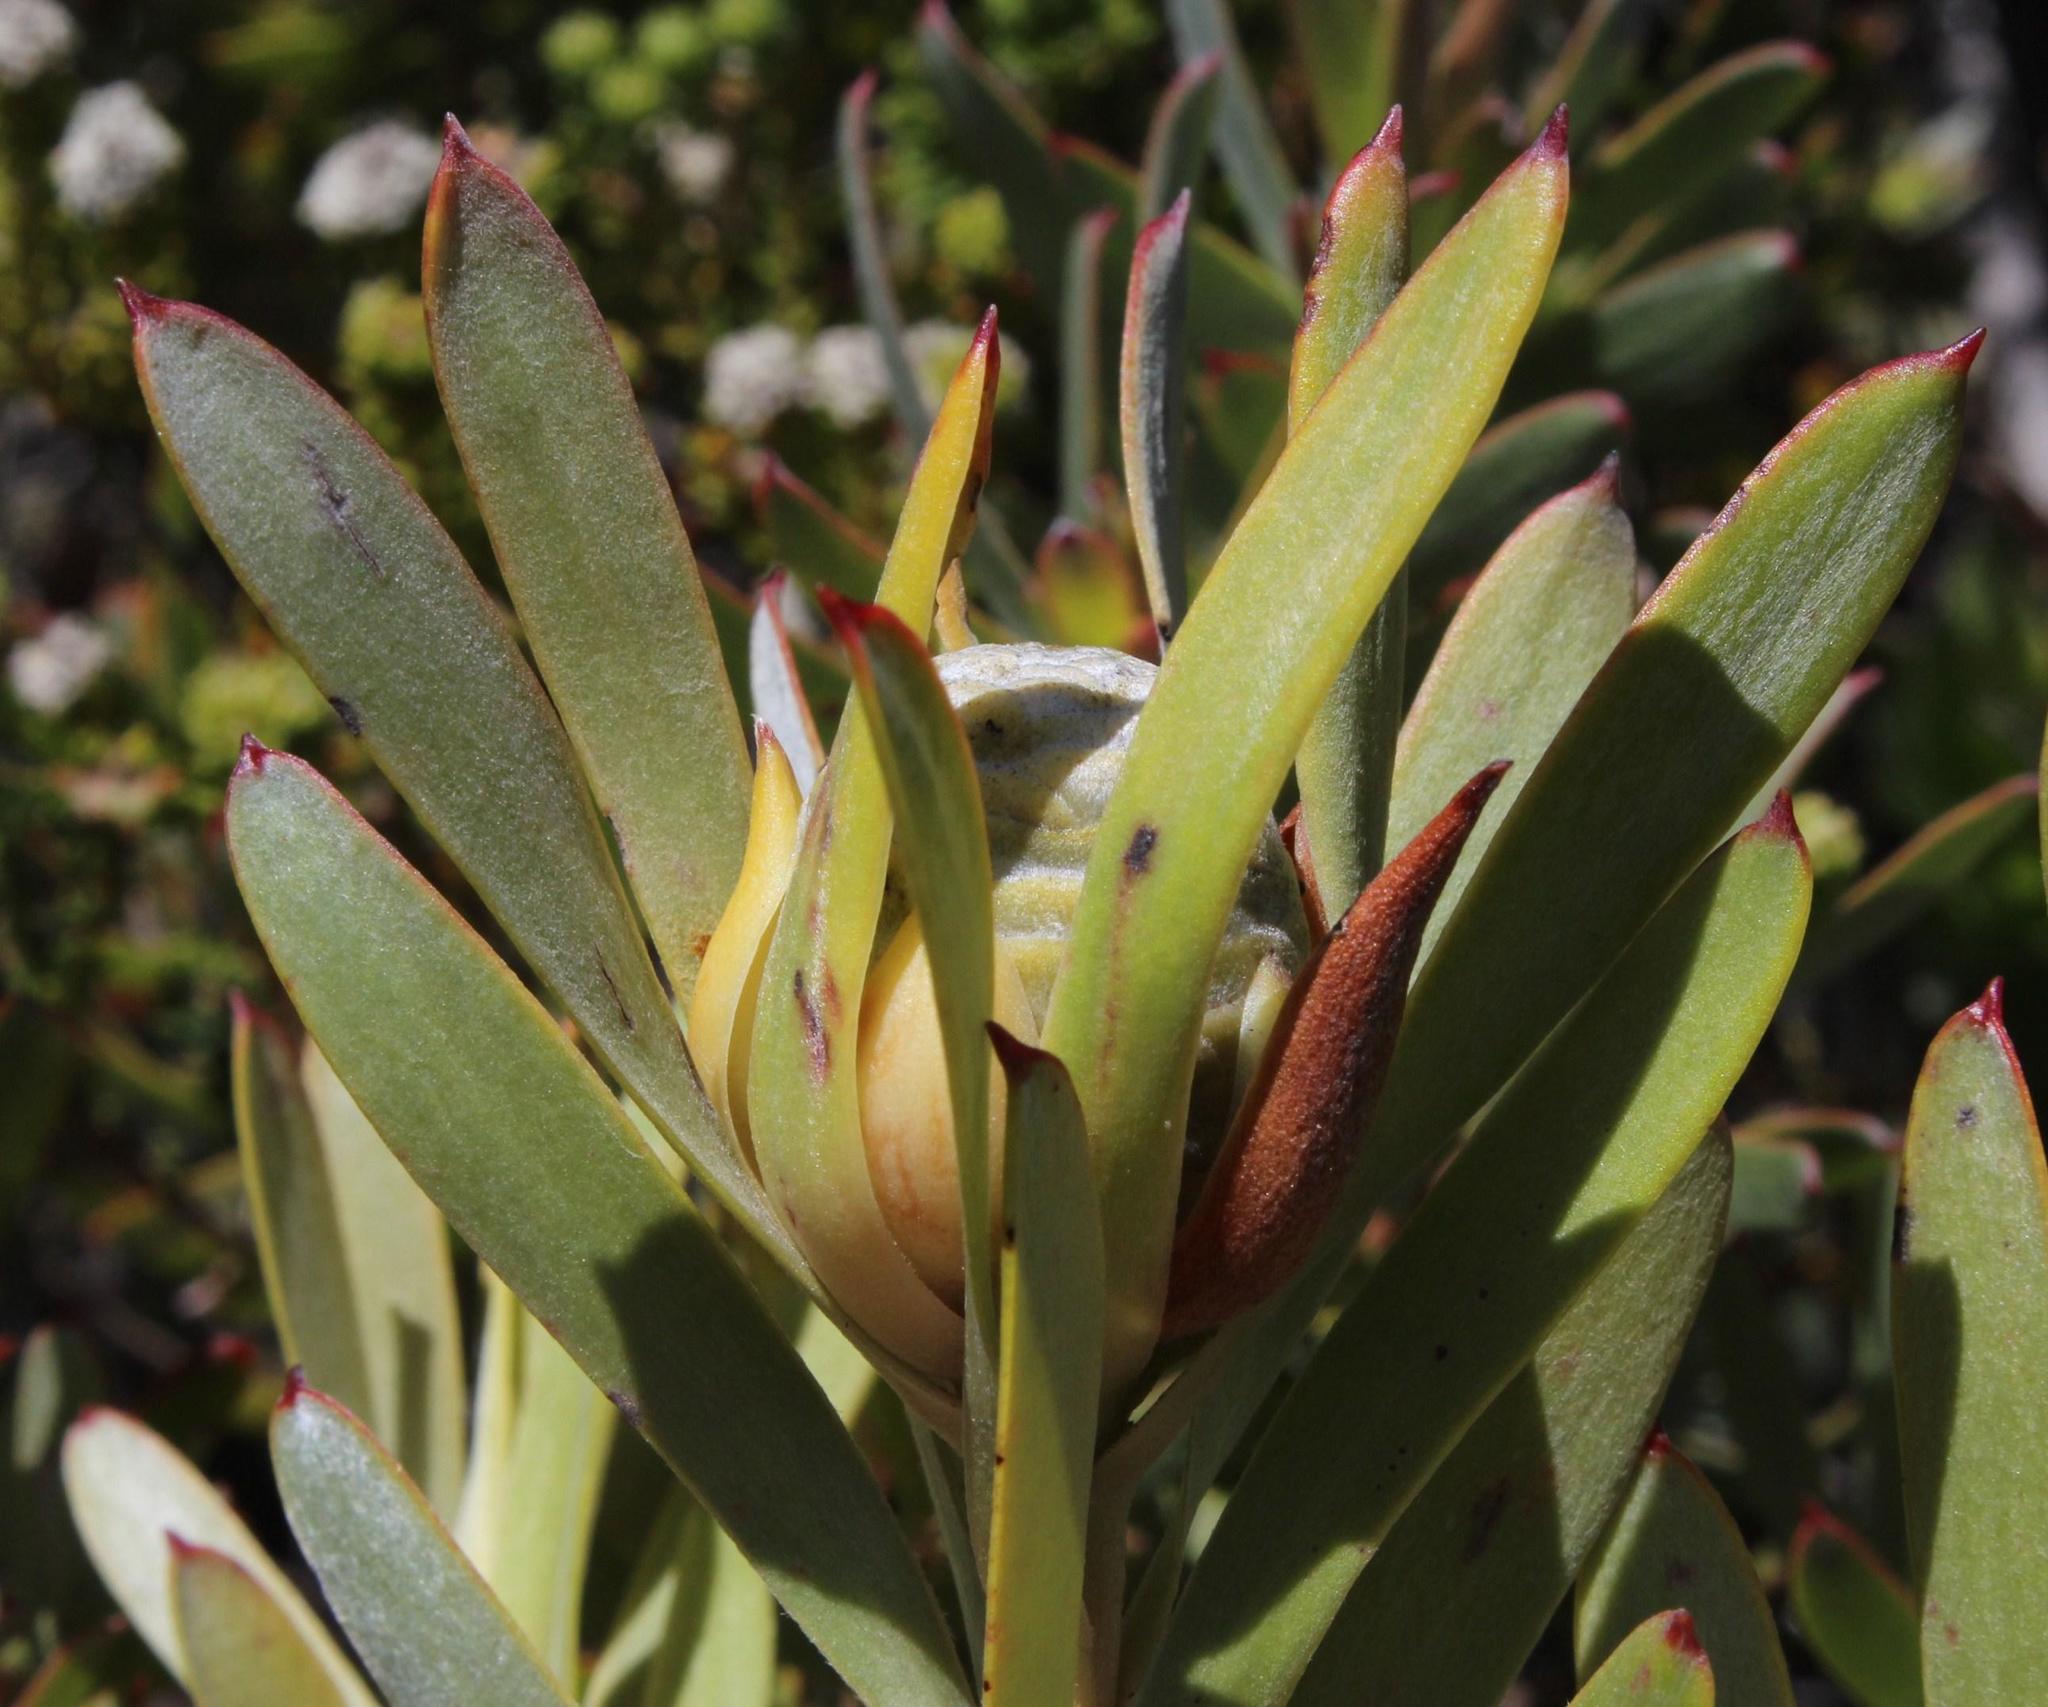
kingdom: Plantae
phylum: Tracheophyta
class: Magnoliopsida
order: Proteales
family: Proteaceae
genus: Leucadendron
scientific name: Leucadendron meridianum
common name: Limestone conebush
